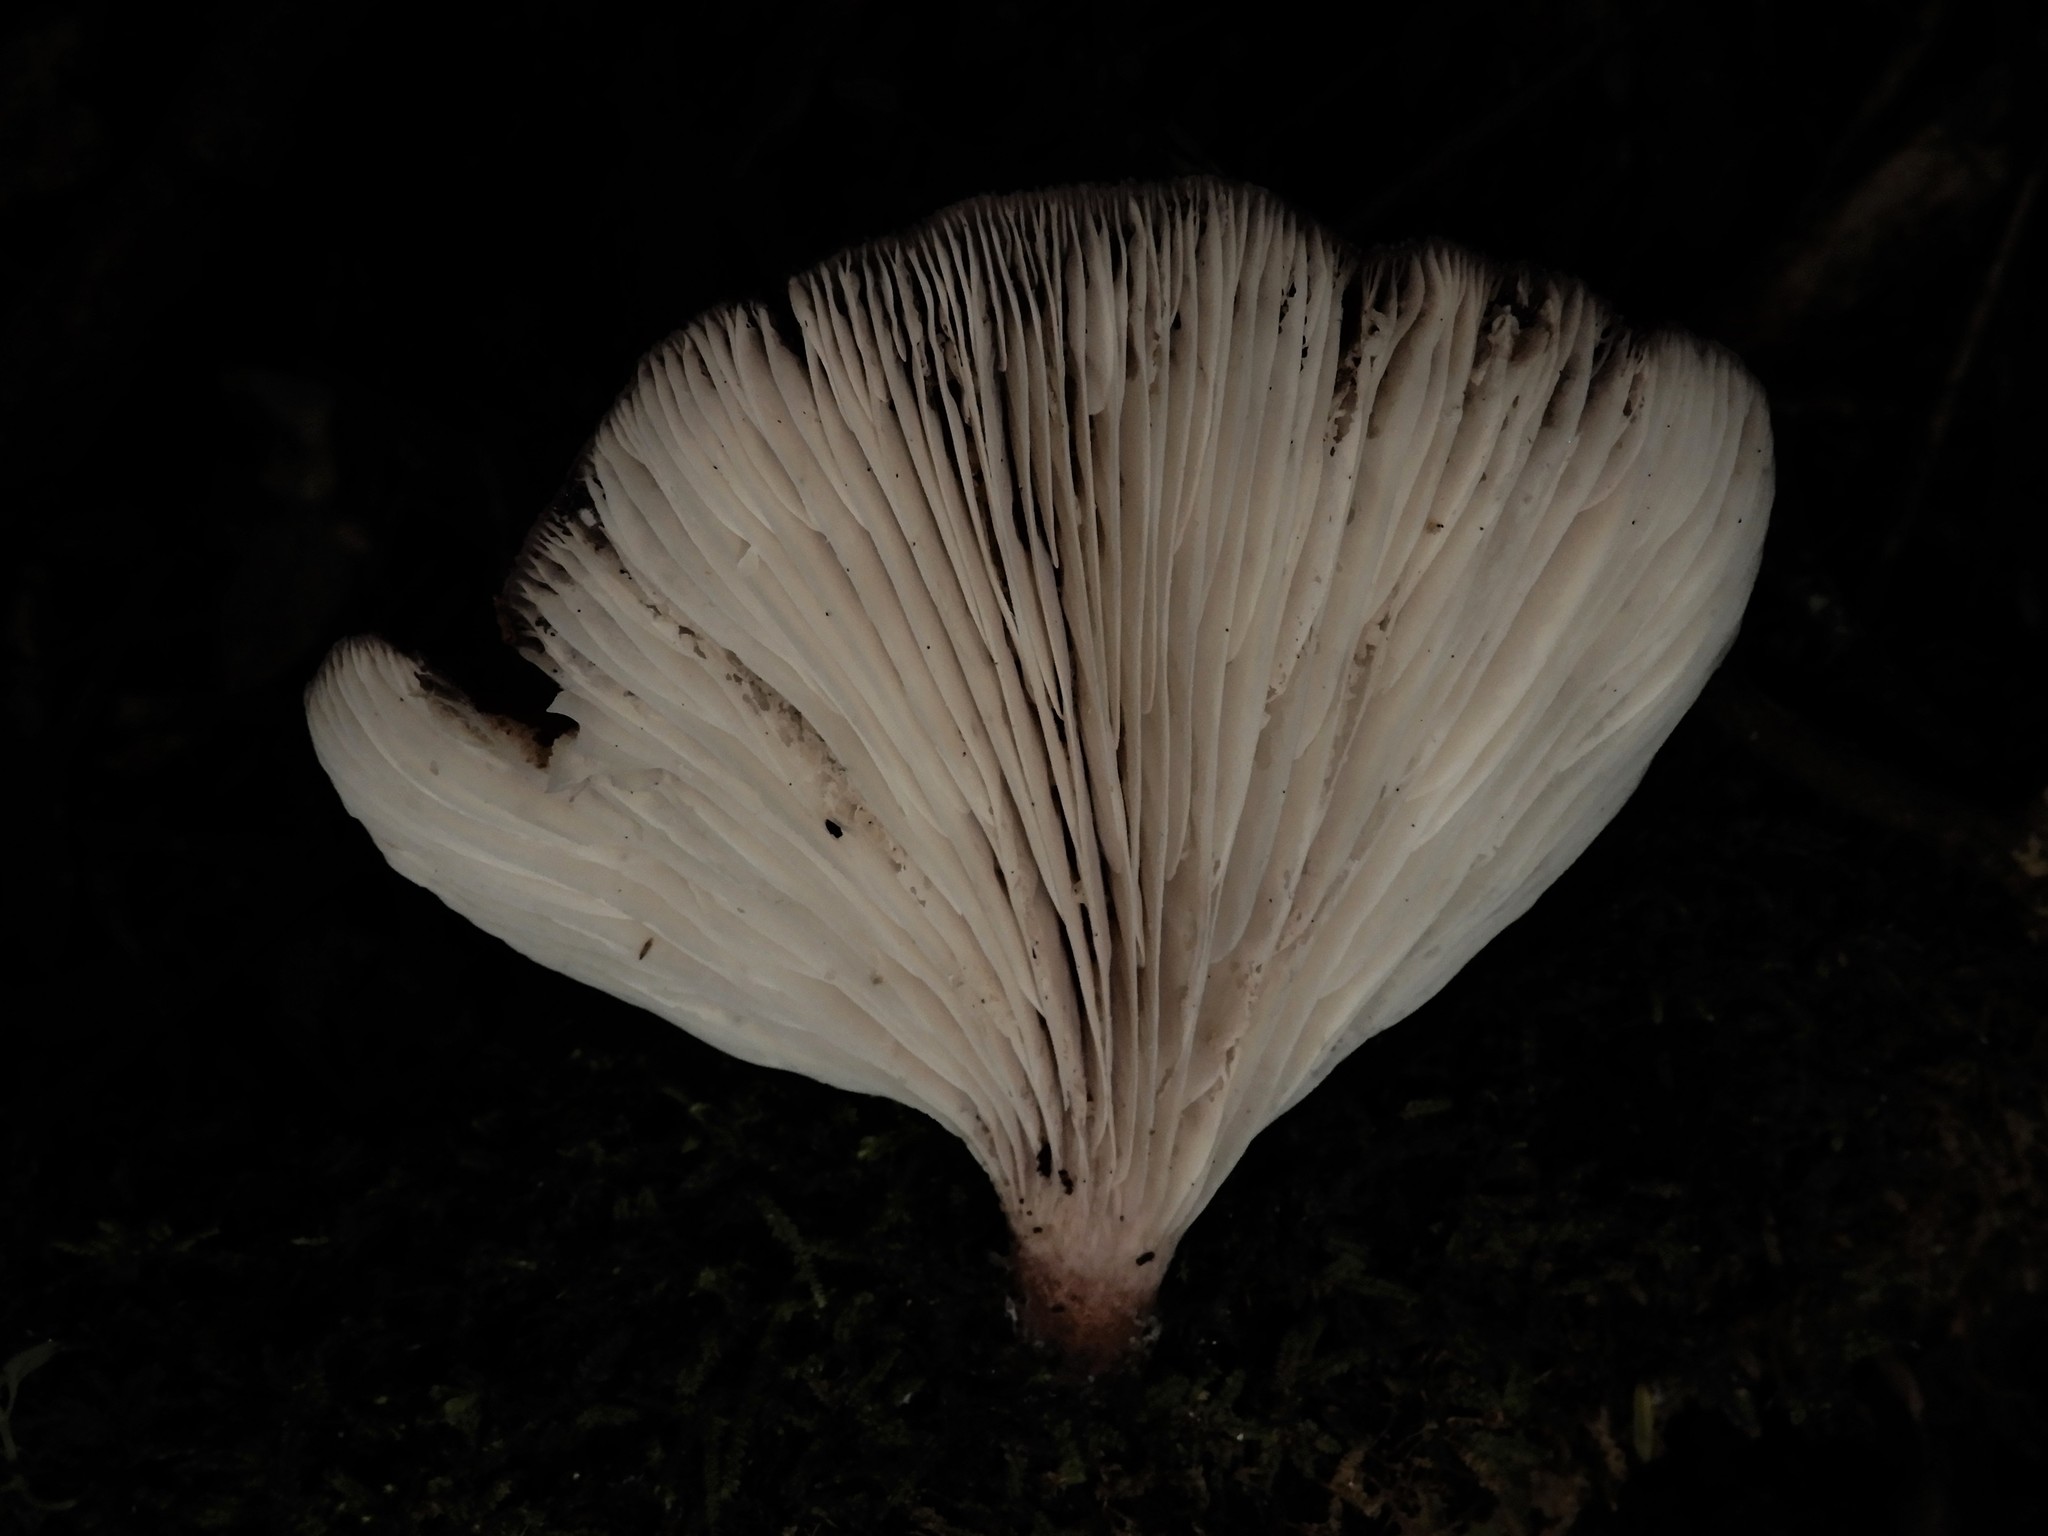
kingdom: Fungi
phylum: Basidiomycota
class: Agaricomycetes
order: Polyporales
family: Panaceae
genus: Panus
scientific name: Panus purpuratus
